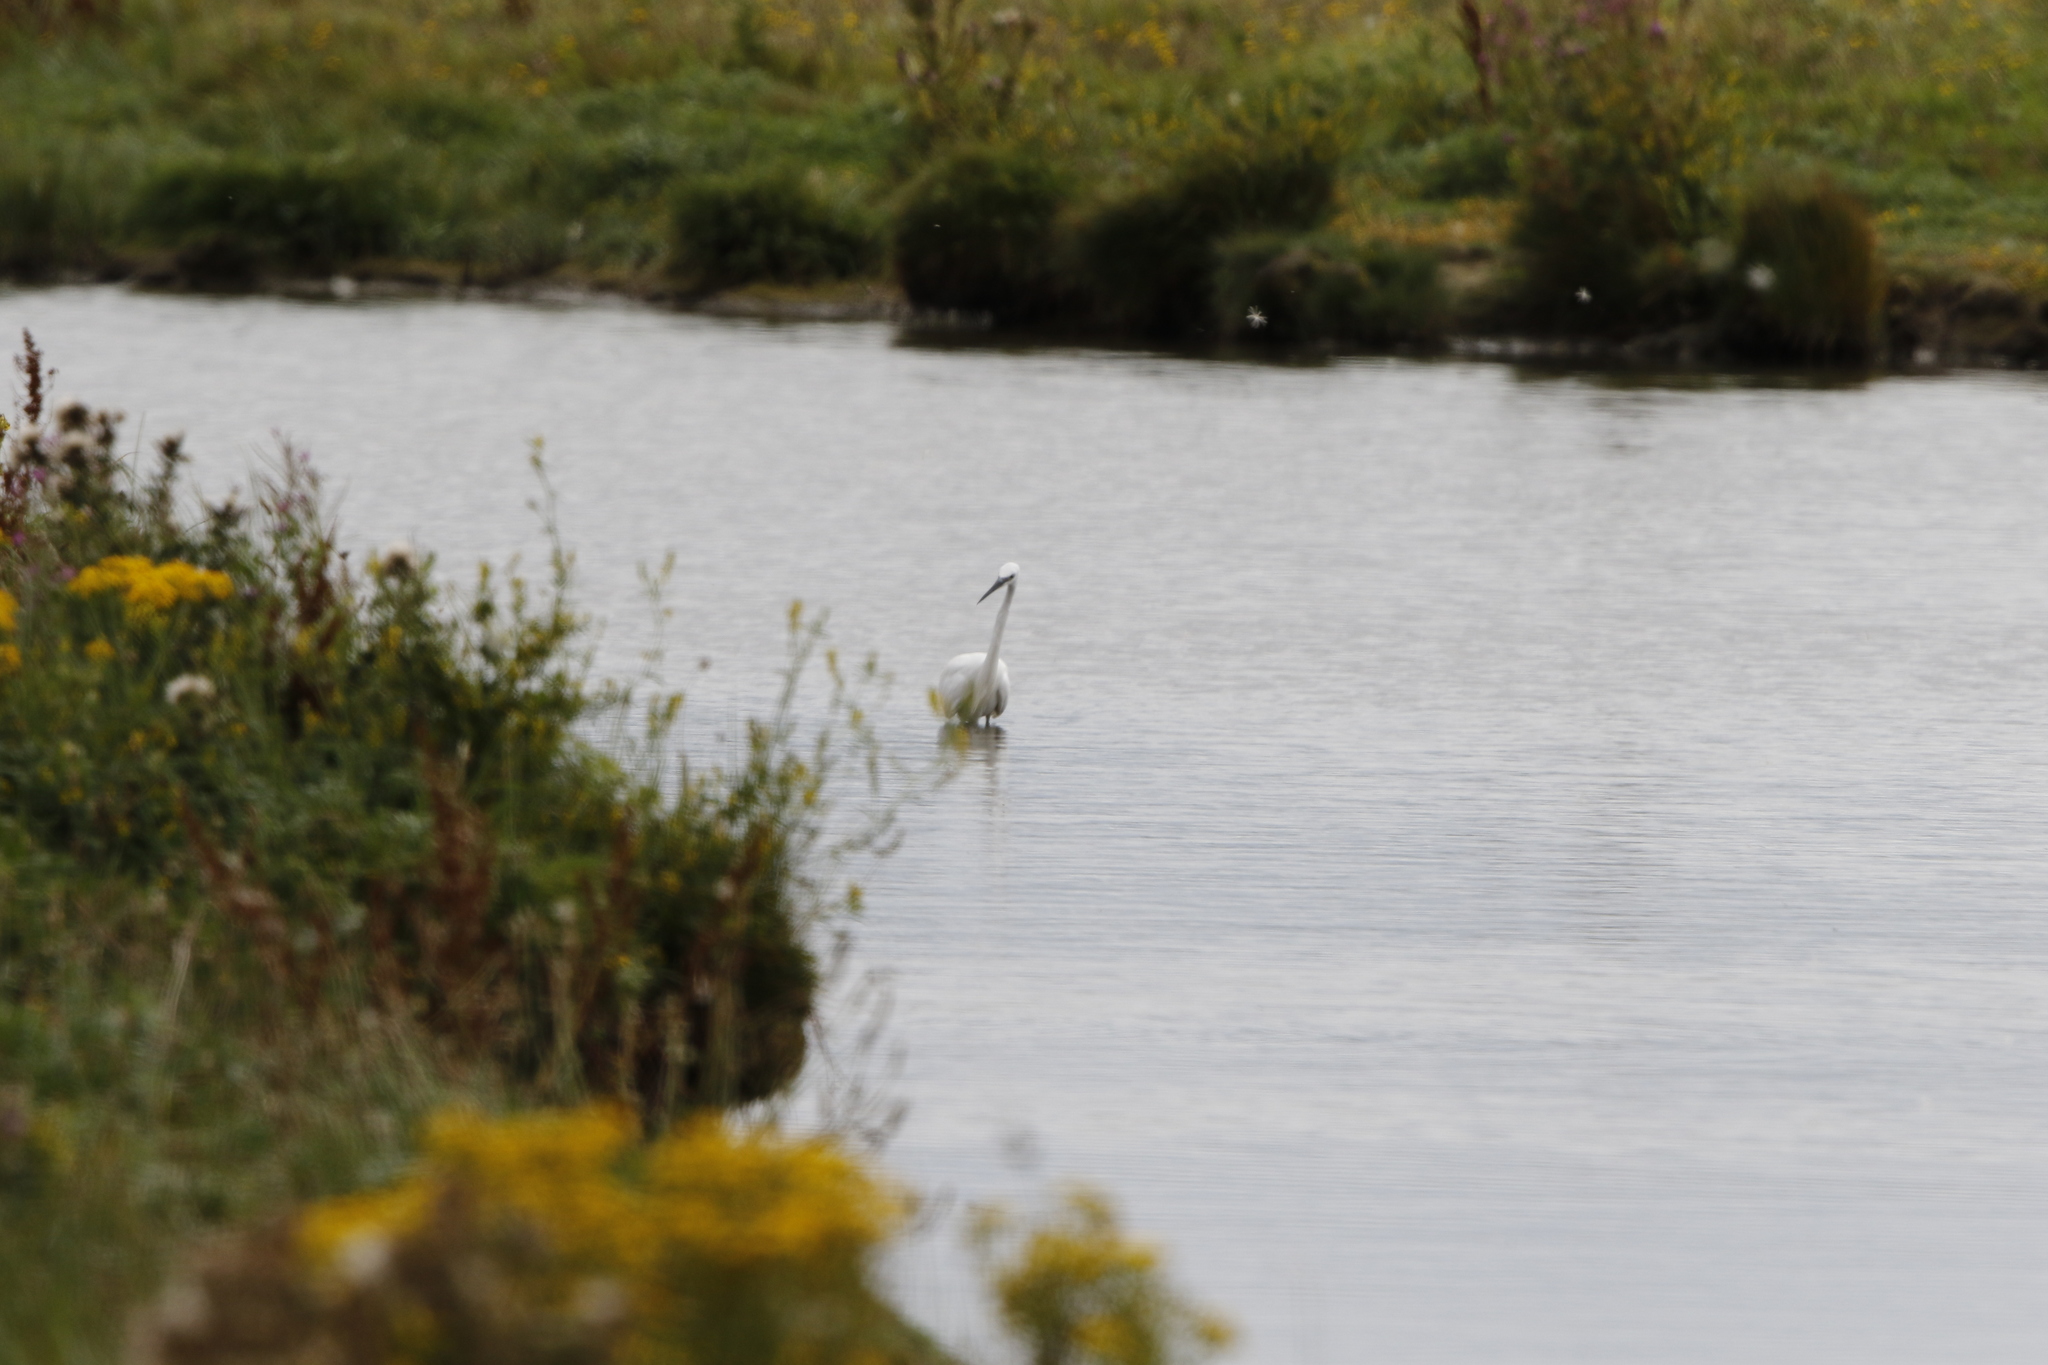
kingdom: Animalia
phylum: Chordata
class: Aves
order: Pelecaniformes
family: Ardeidae
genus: Egretta
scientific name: Egretta garzetta
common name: Little egret
